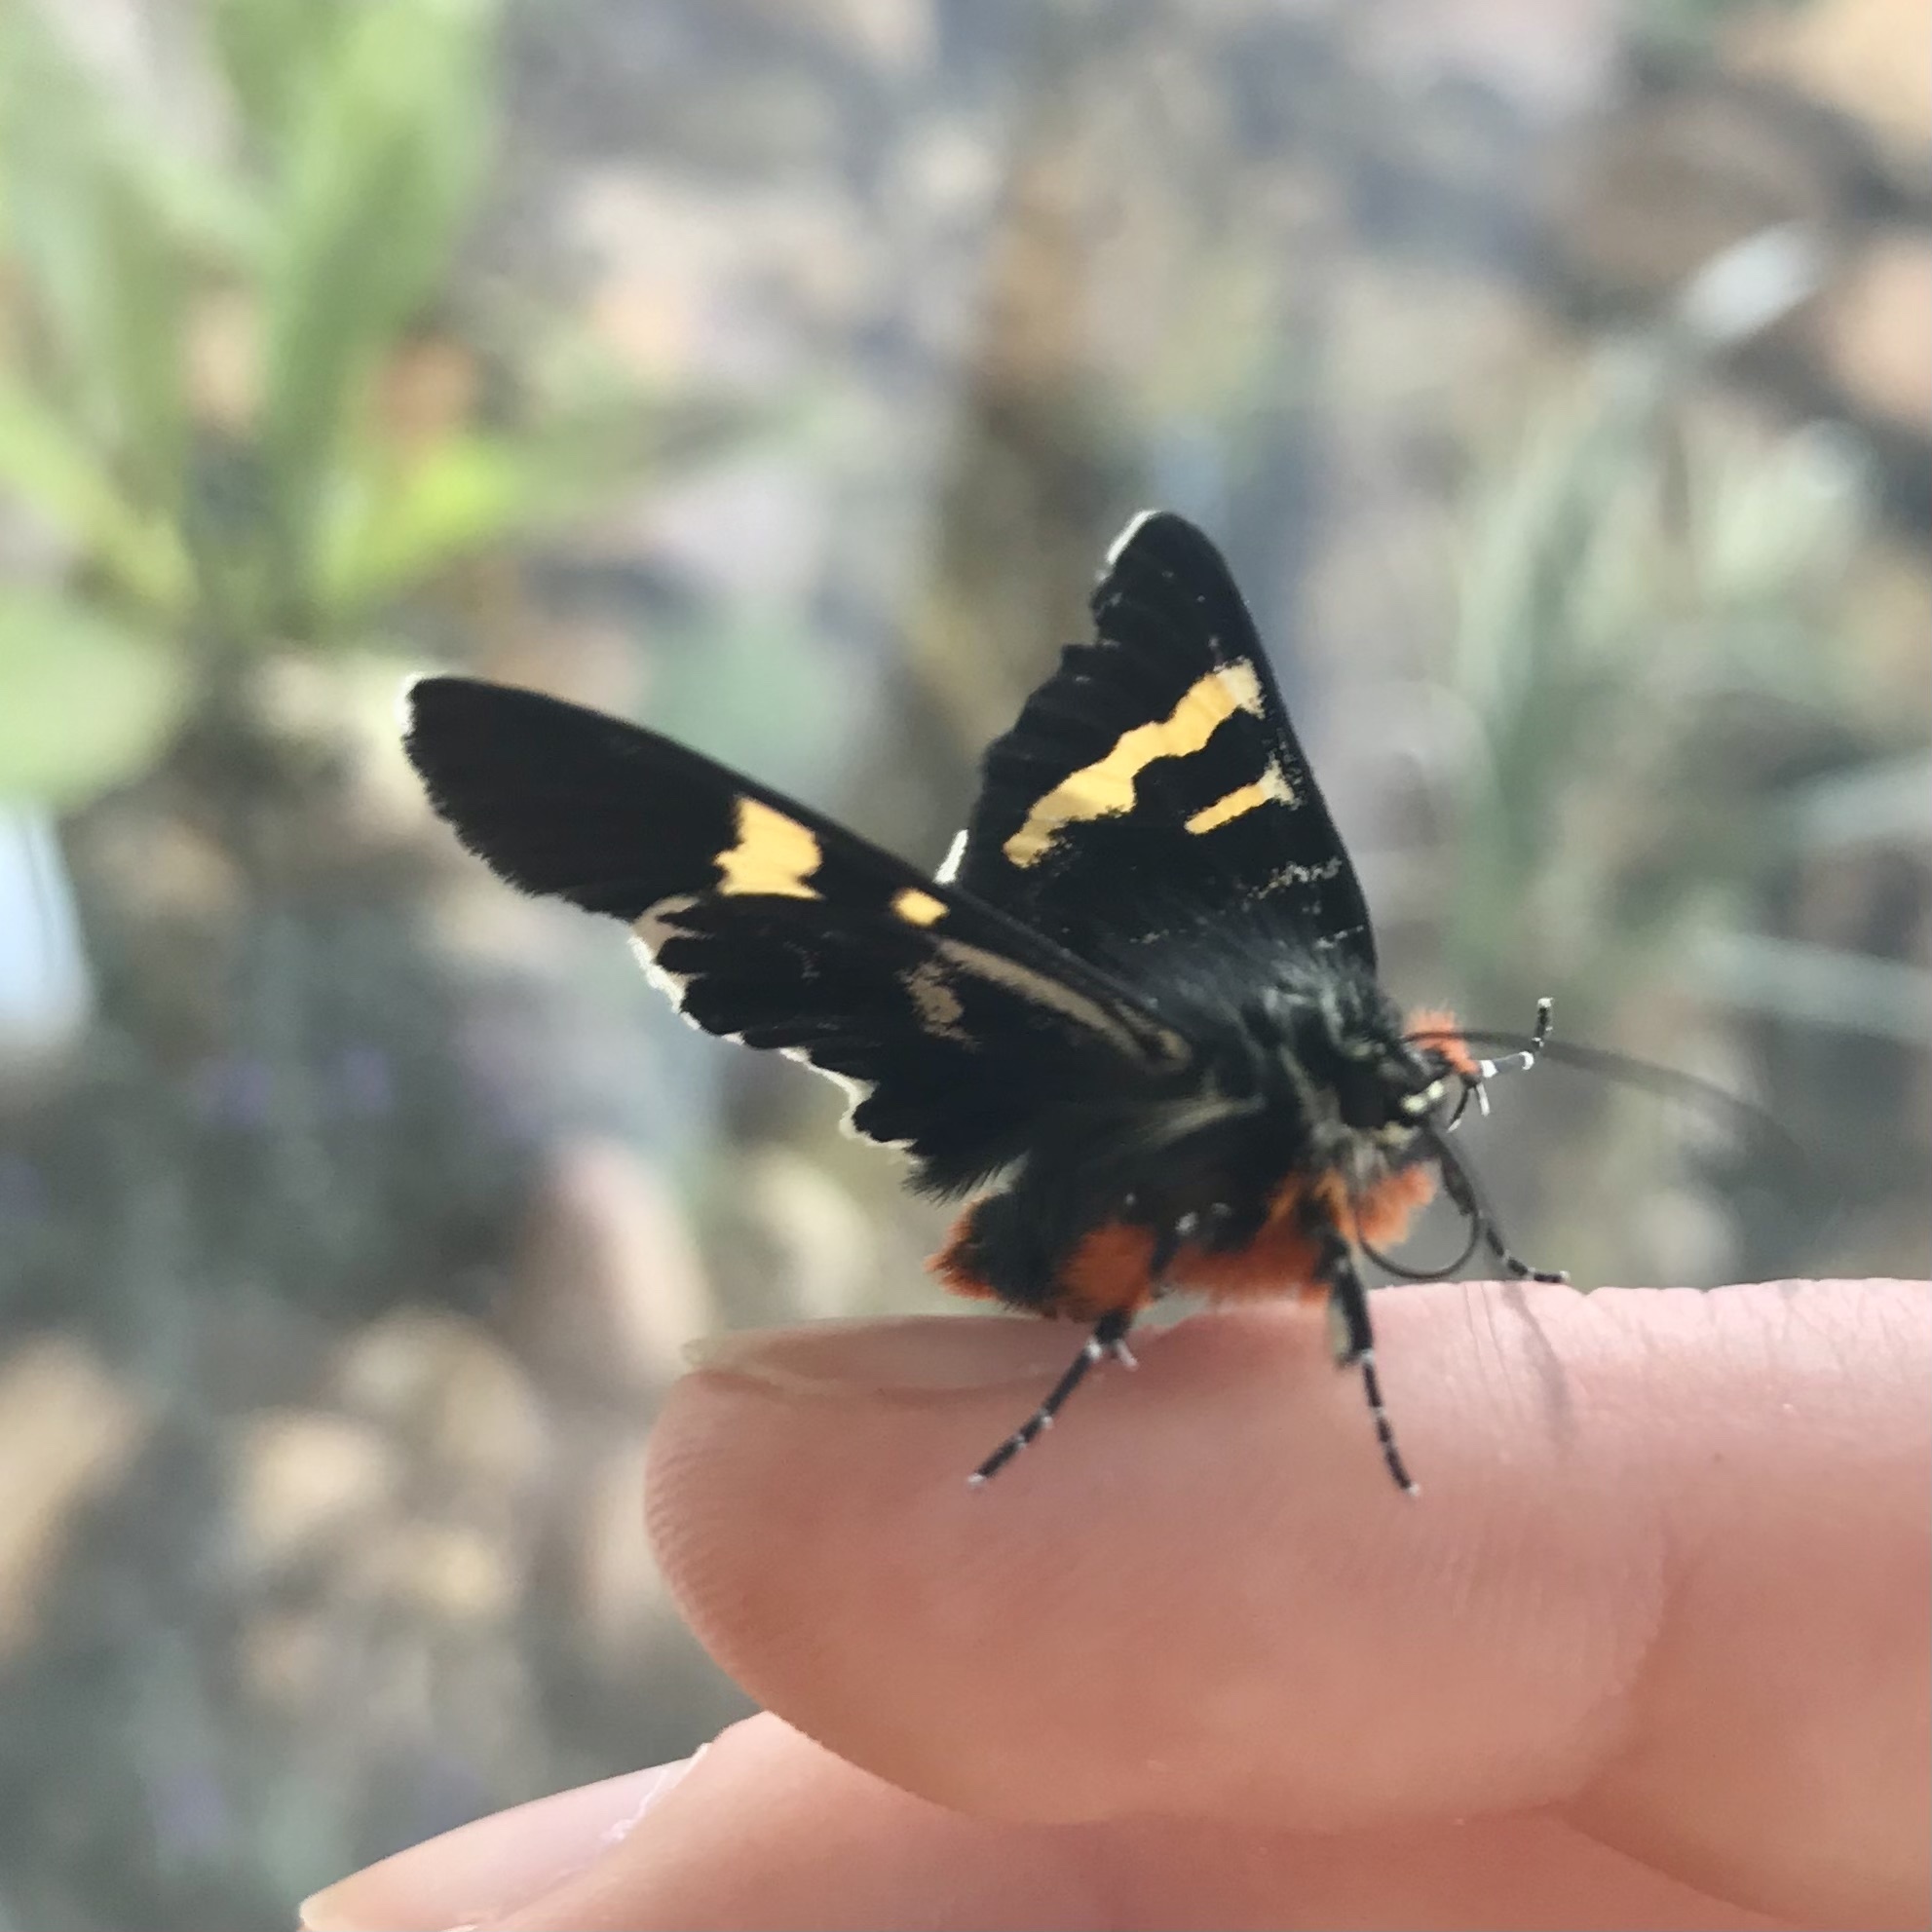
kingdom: Animalia
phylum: Arthropoda
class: Insecta
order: Lepidoptera
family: Noctuidae
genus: Phalaenoides
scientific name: Phalaenoides glycinae
